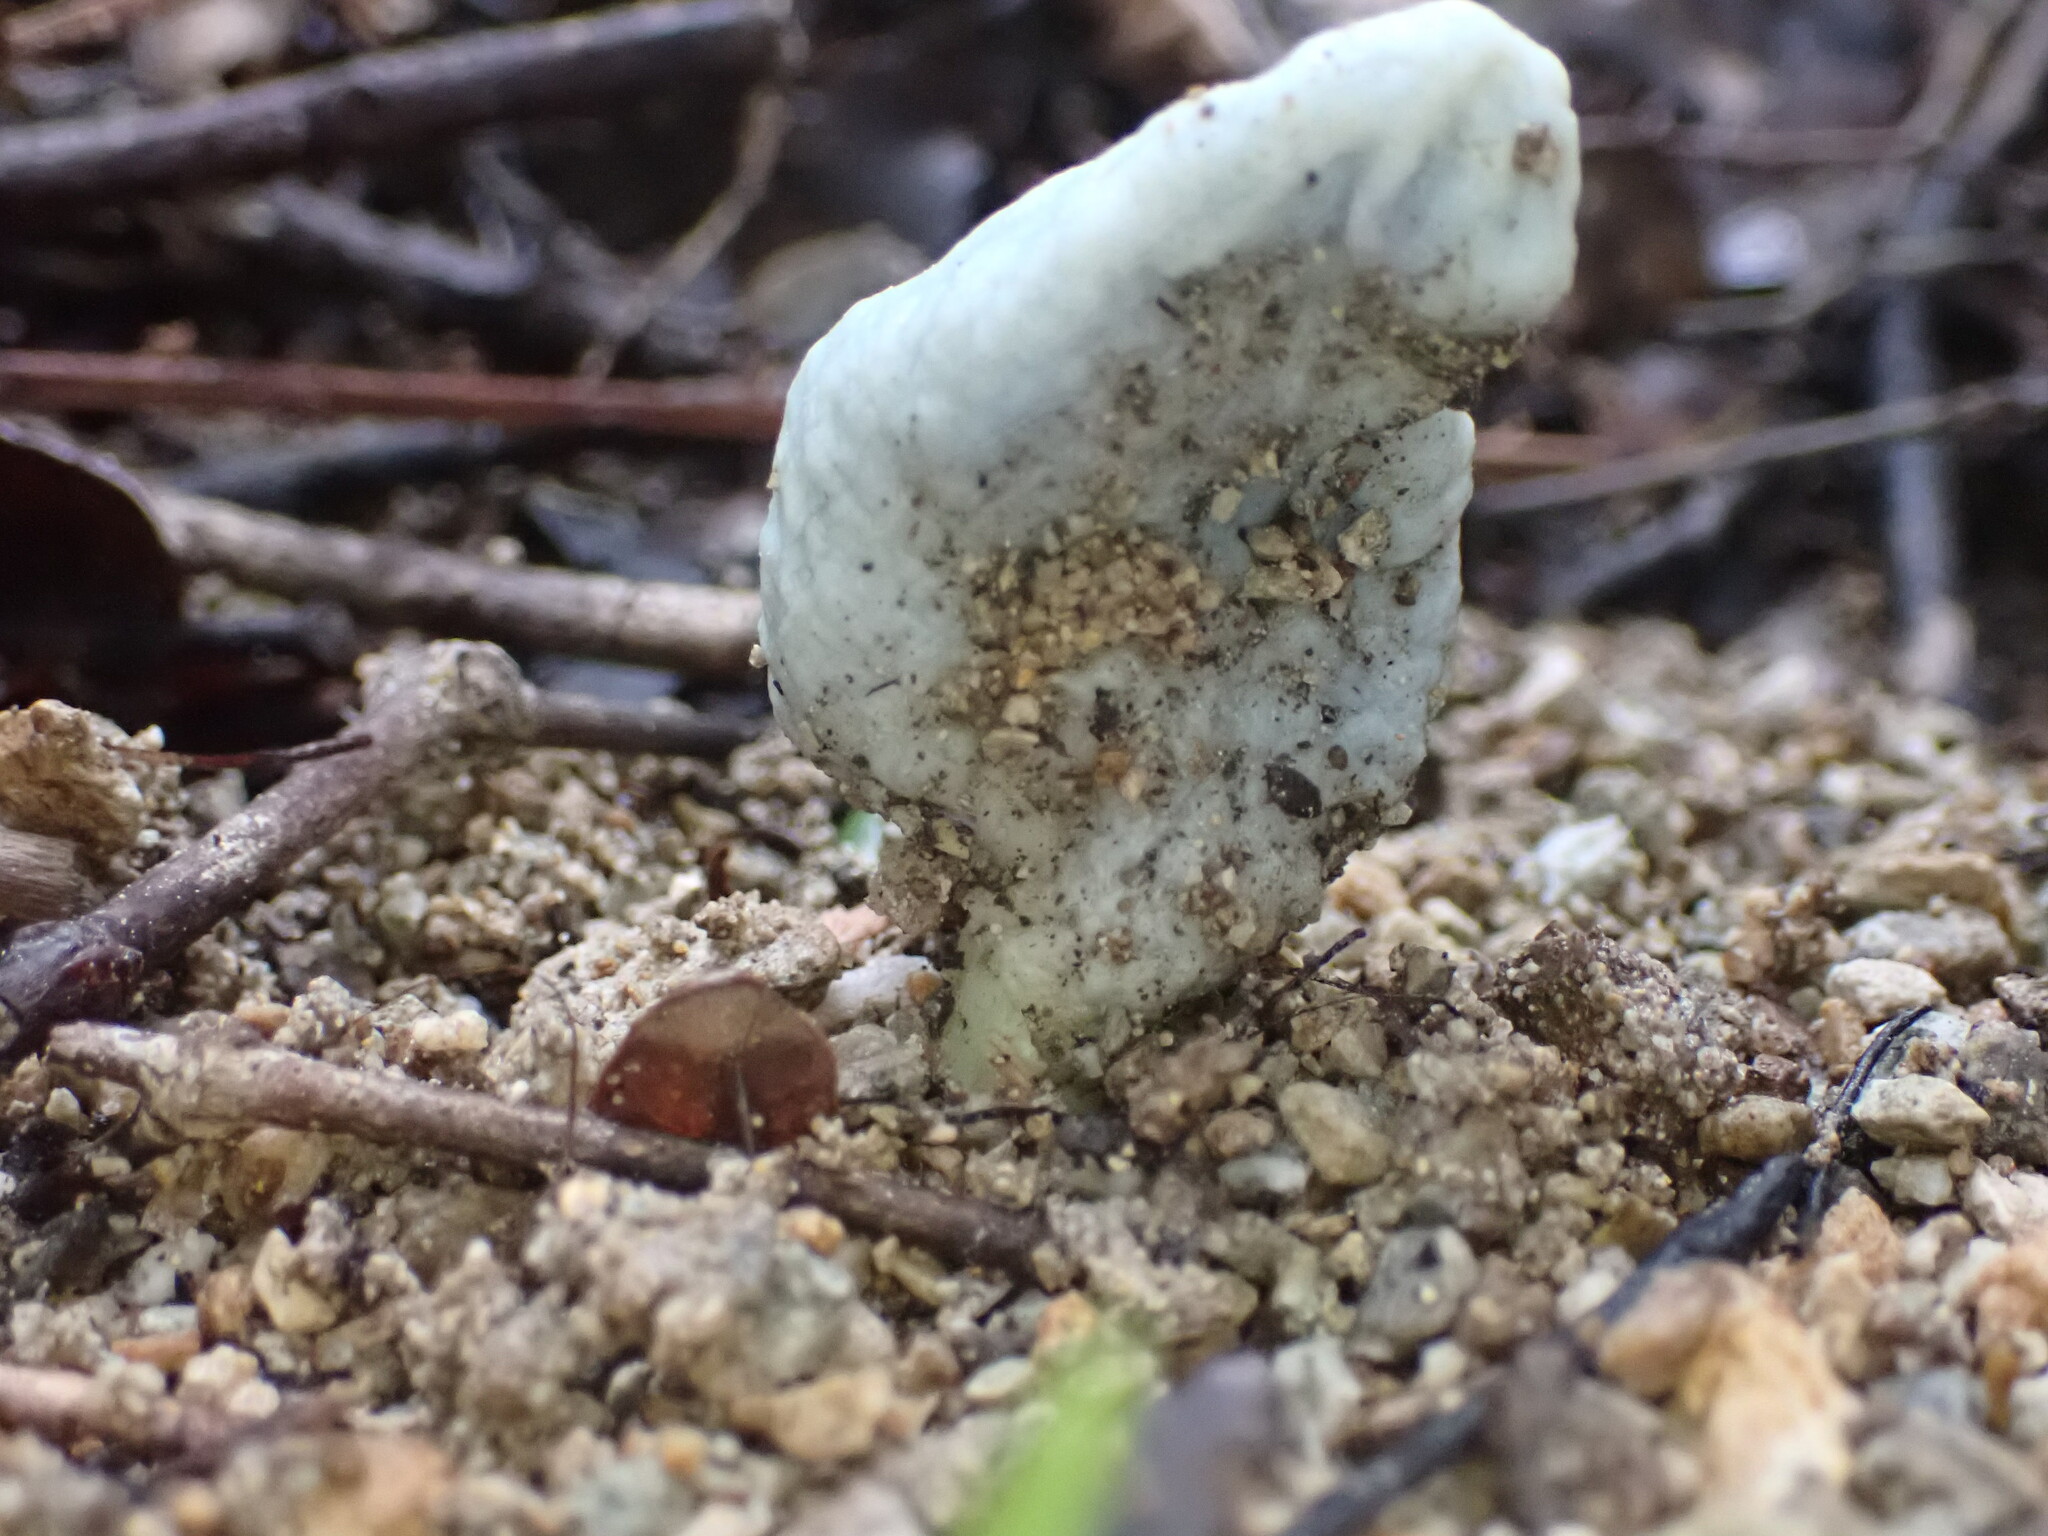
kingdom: Fungi
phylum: Basidiomycota
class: Agaricomycetes
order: Agaricales
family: Agaricaceae
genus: Clavogaster
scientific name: Clavogaster virescens
